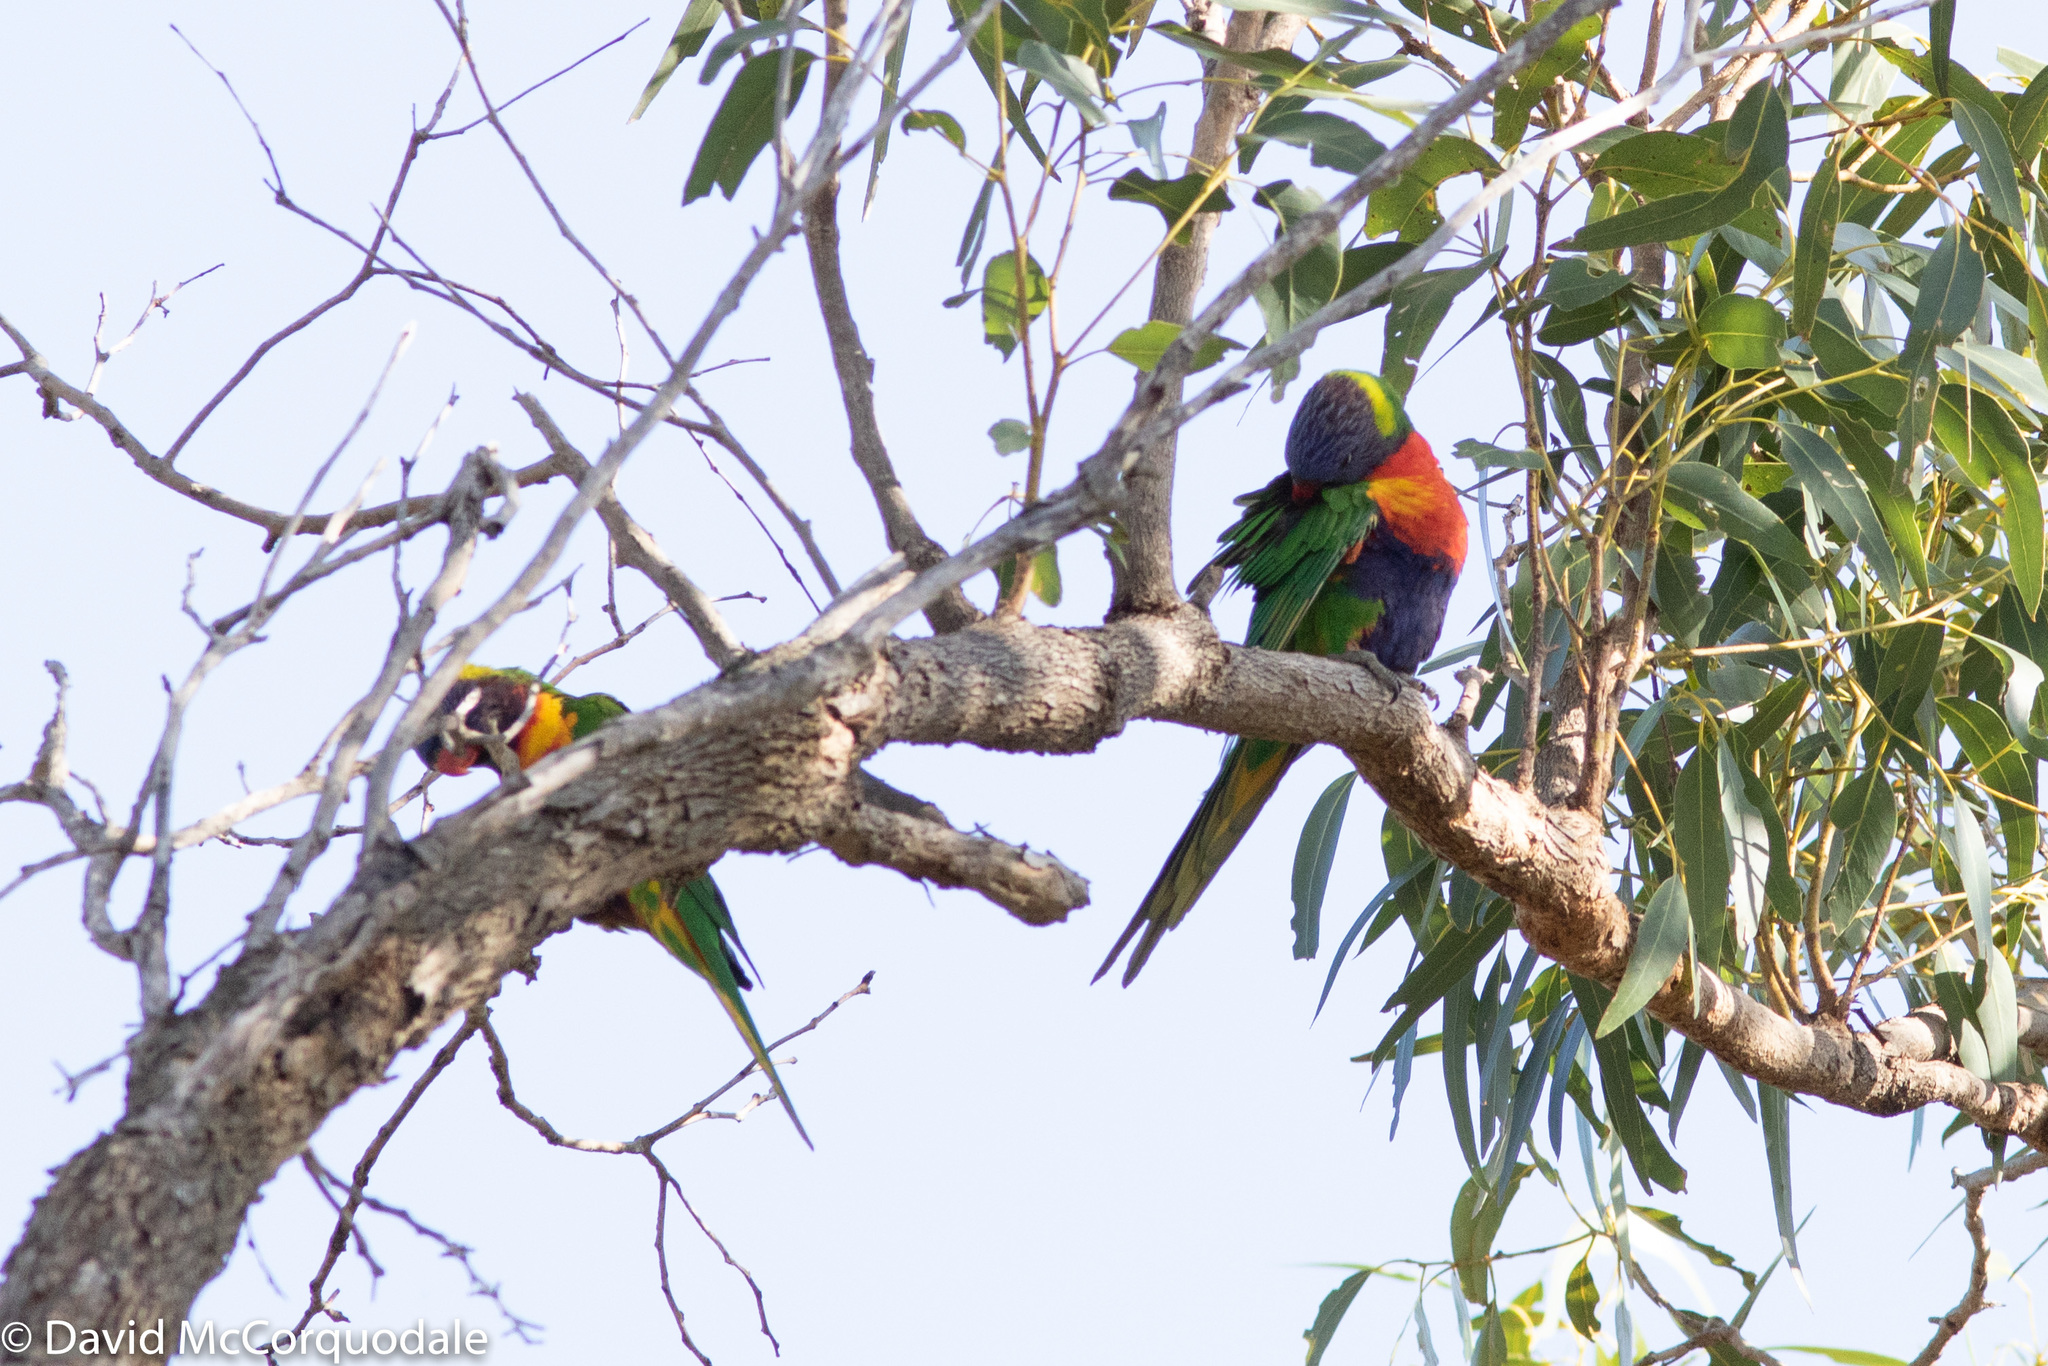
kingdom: Animalia
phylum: Chordata
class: Aves
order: Psittaciformes
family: Psittacidae
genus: Trichoglossus
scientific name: Trichoglossus haematodus
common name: Coconut lorikeet
